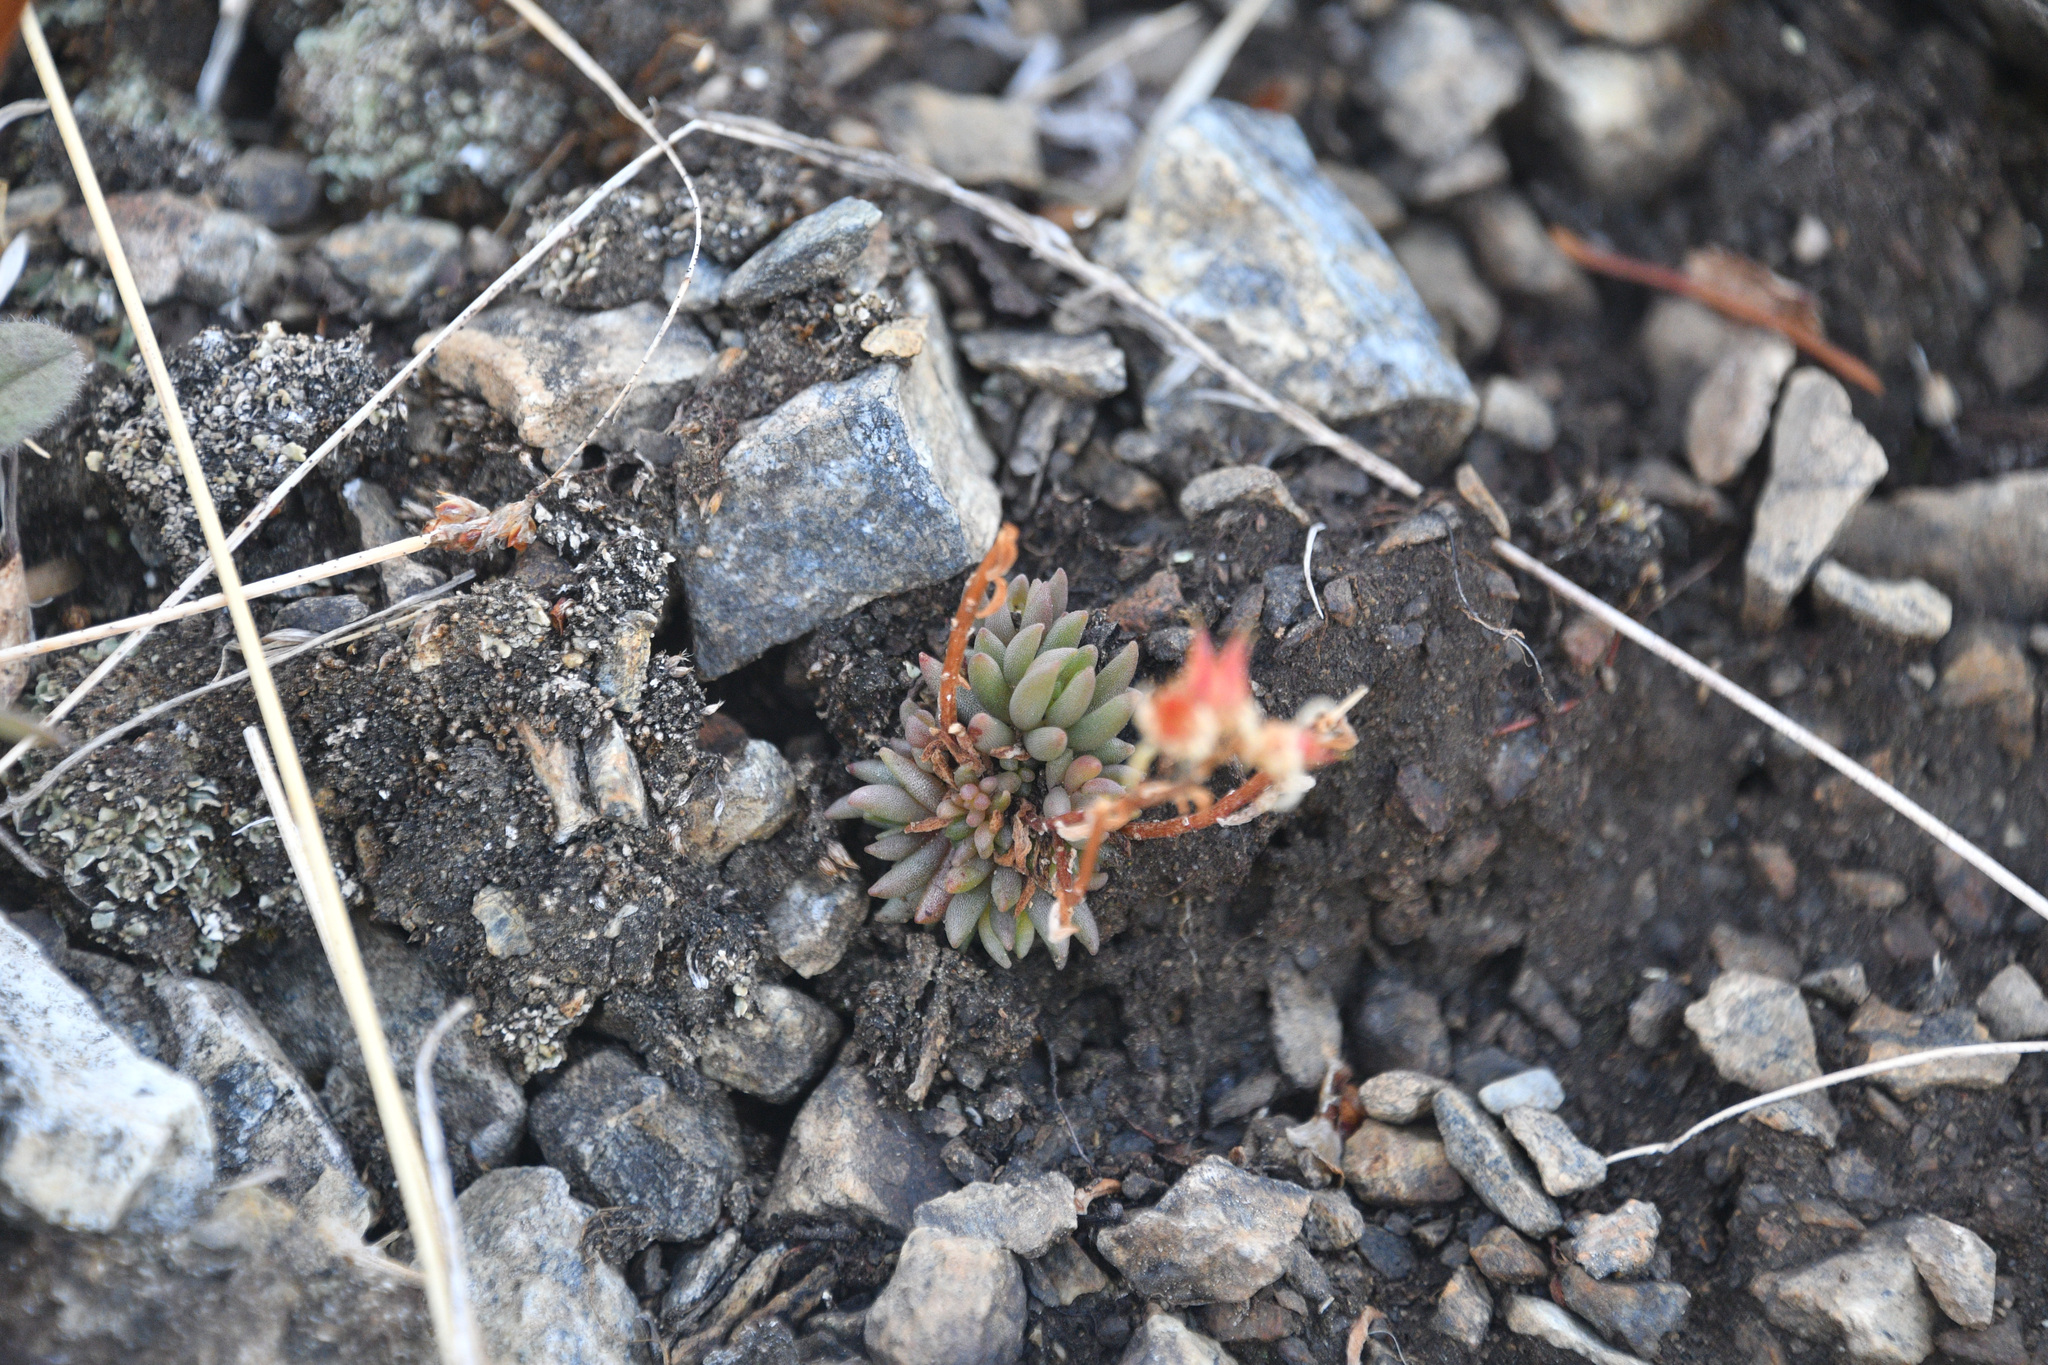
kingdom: Plantae
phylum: Tracheophyta
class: Magnoliopsida
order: Saxifragales
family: Crassulaceae
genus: Sedum
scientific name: Sedum lanceolatum
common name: Common stonecrop
